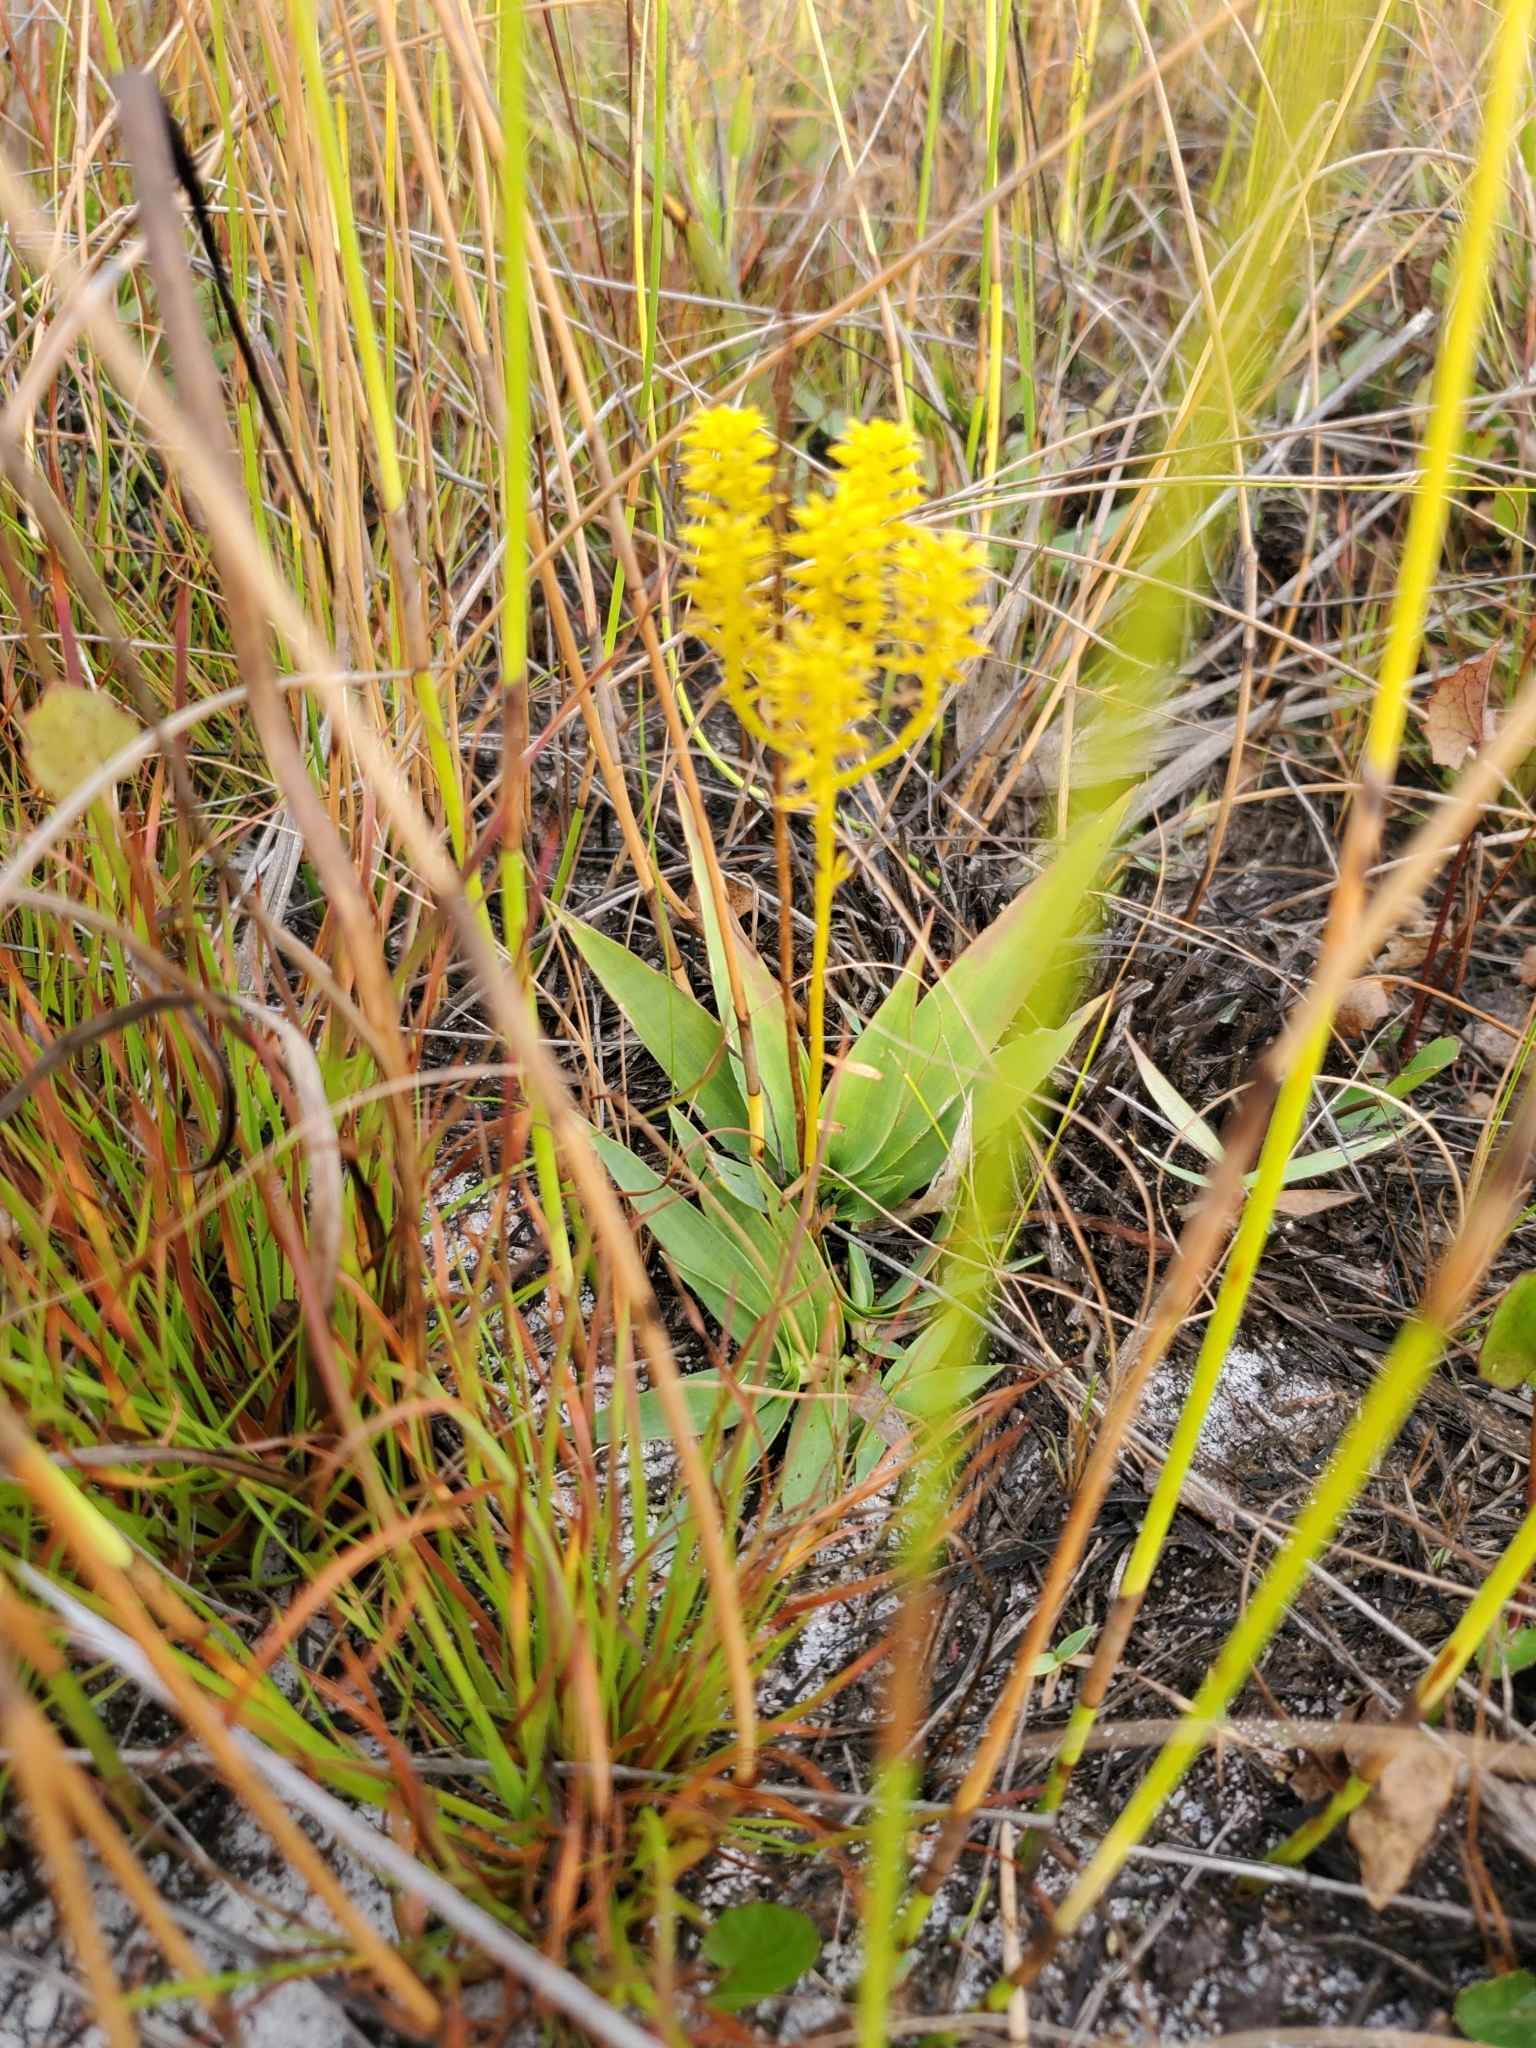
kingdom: Plantae
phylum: Tracheophyta
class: Magnoliopsida
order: Fabales
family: Polygalaceae
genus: Polygala
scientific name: Polygala ramosa
